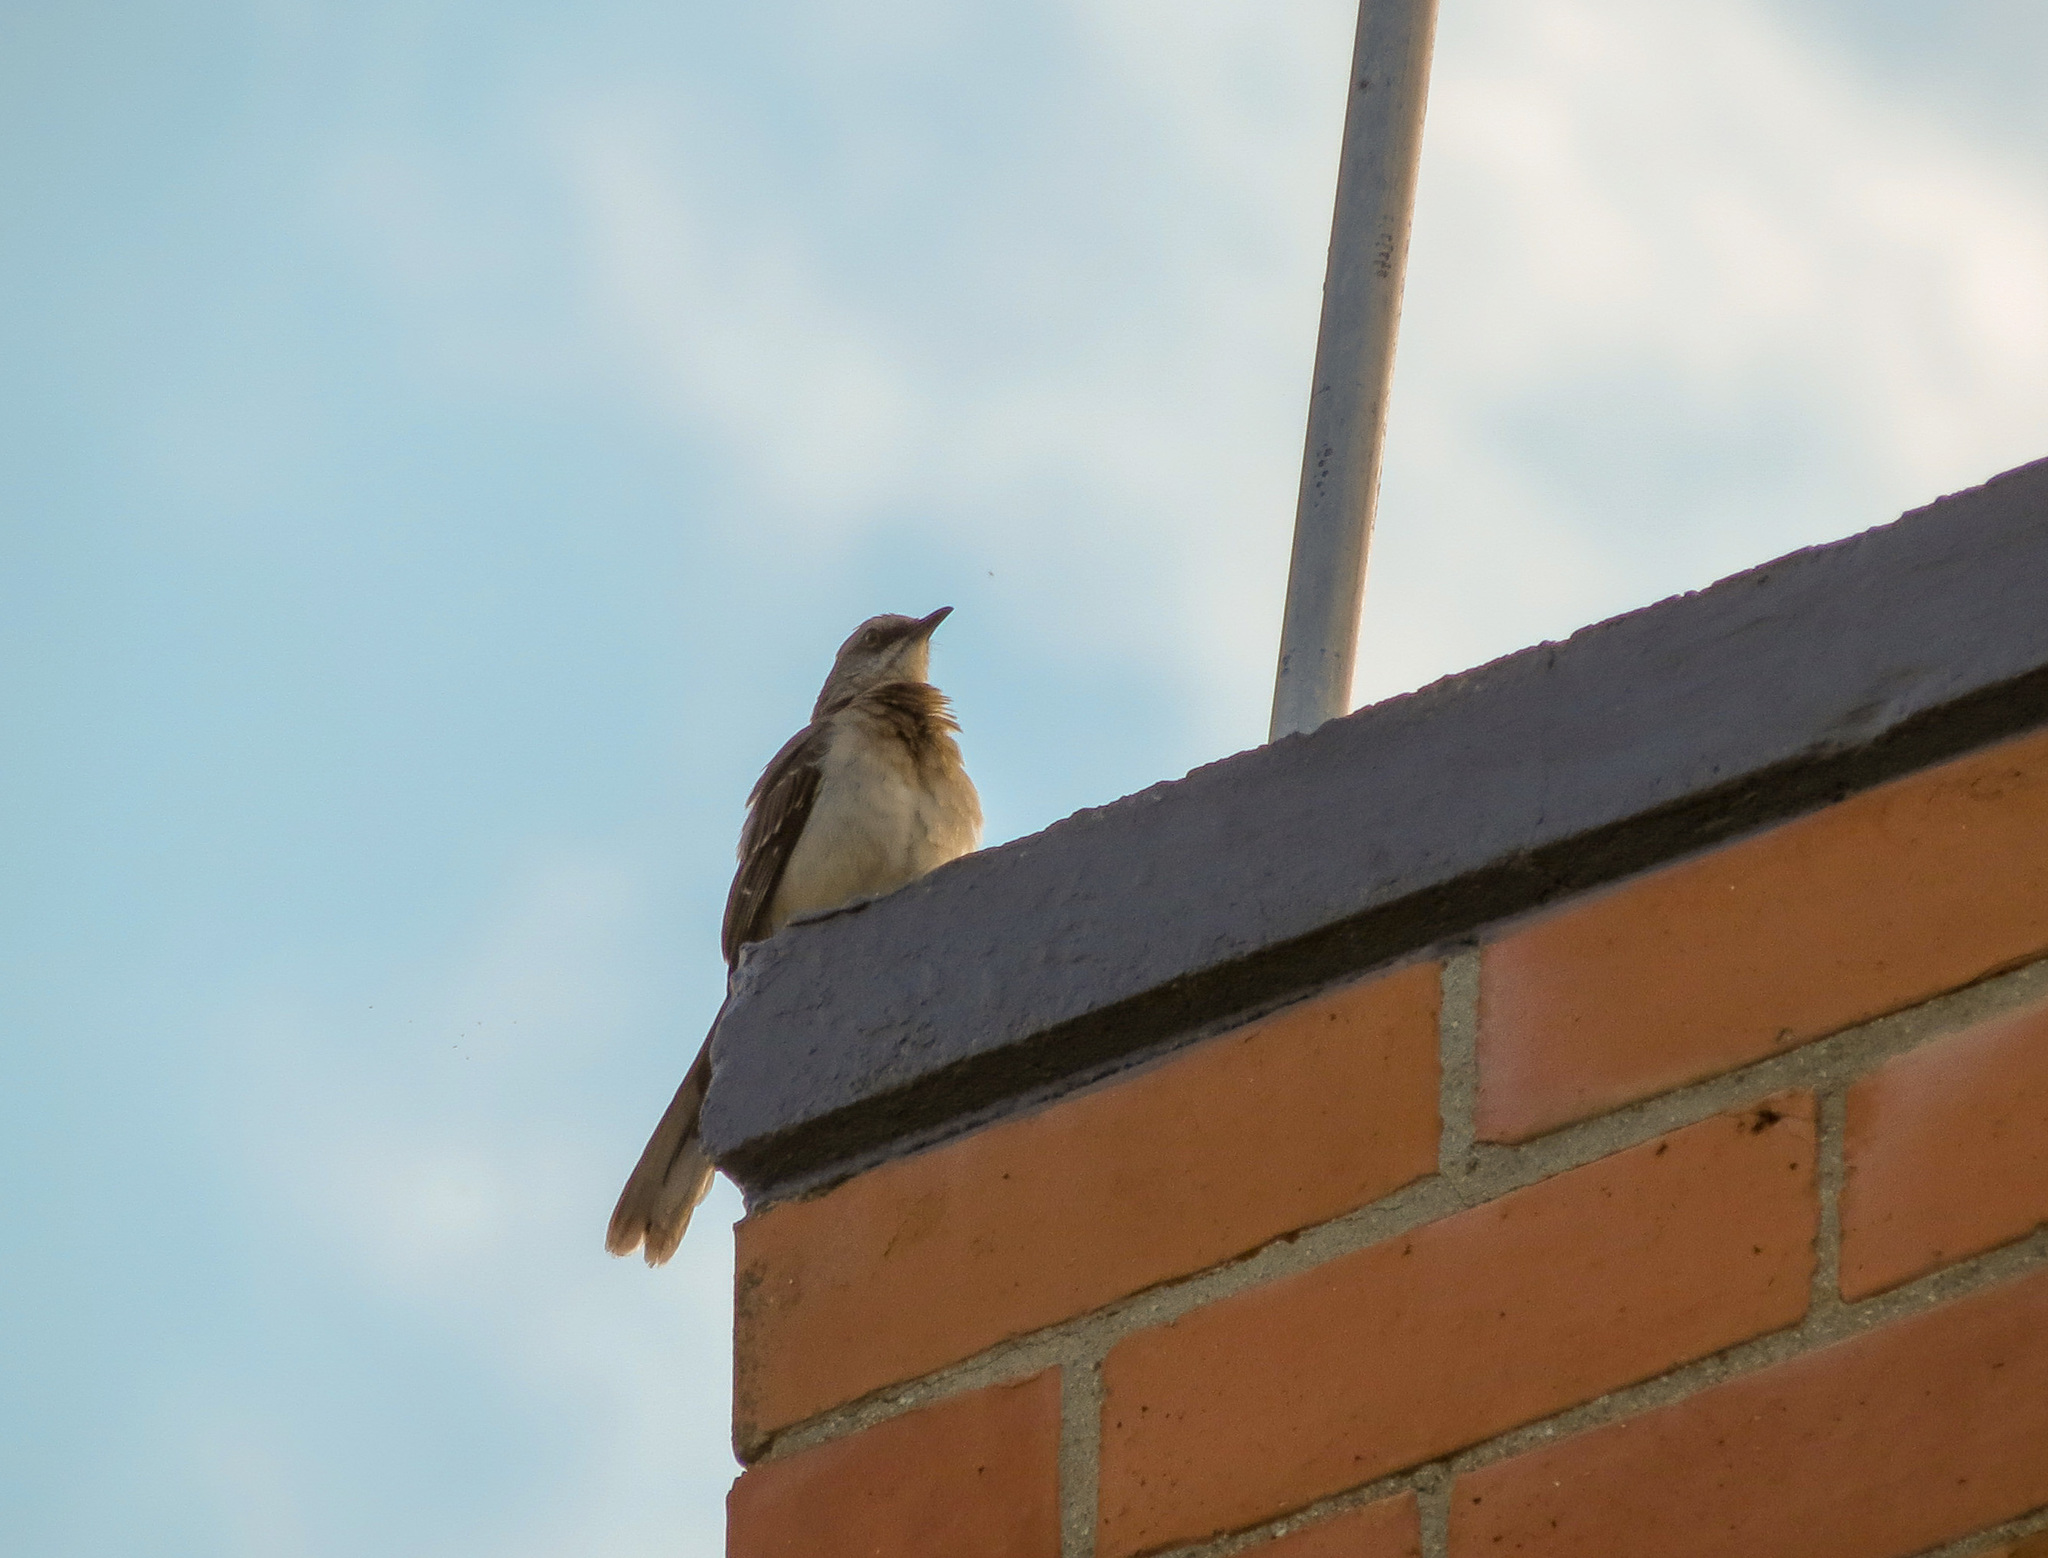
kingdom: Animalia
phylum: Chordata
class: Aves
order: Passeriformes
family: Mimidae
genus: Mimus
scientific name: Mimus gilvus
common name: Tropical mockingbird
